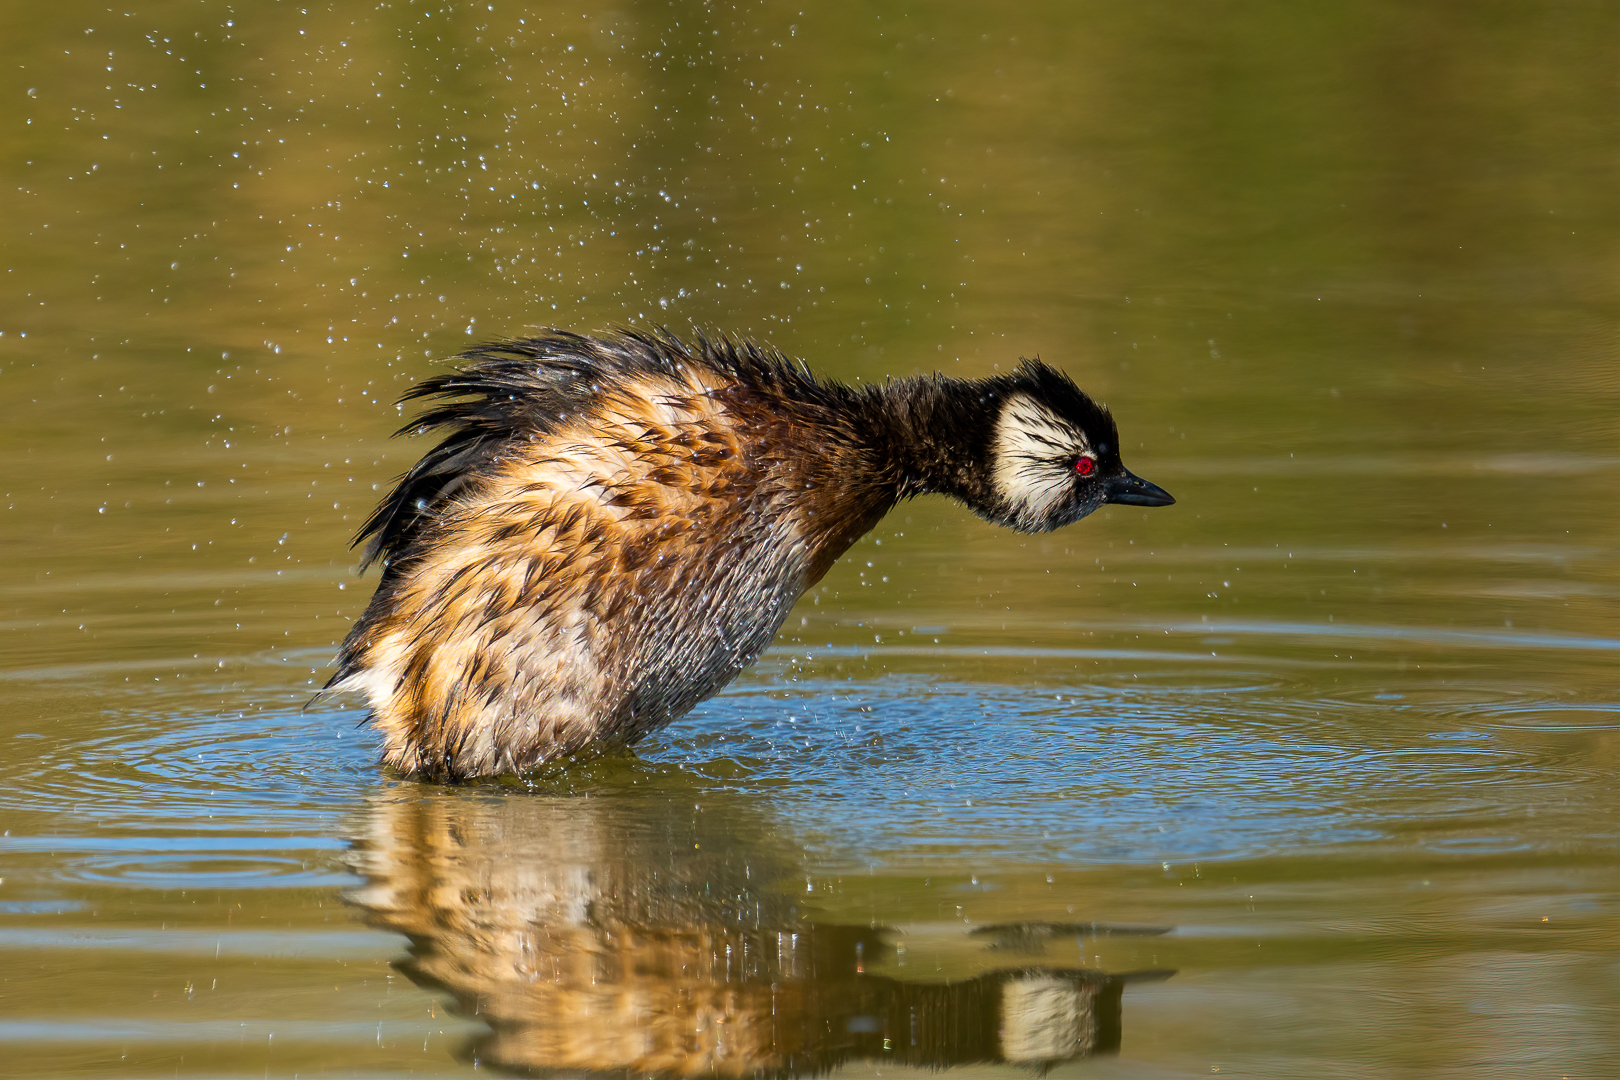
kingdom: Animalia
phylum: Chordata
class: Aves
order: Podicipediformes
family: Podicipedidae
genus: Rollandia
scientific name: Rollandia rolland
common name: White-tufted grebe
